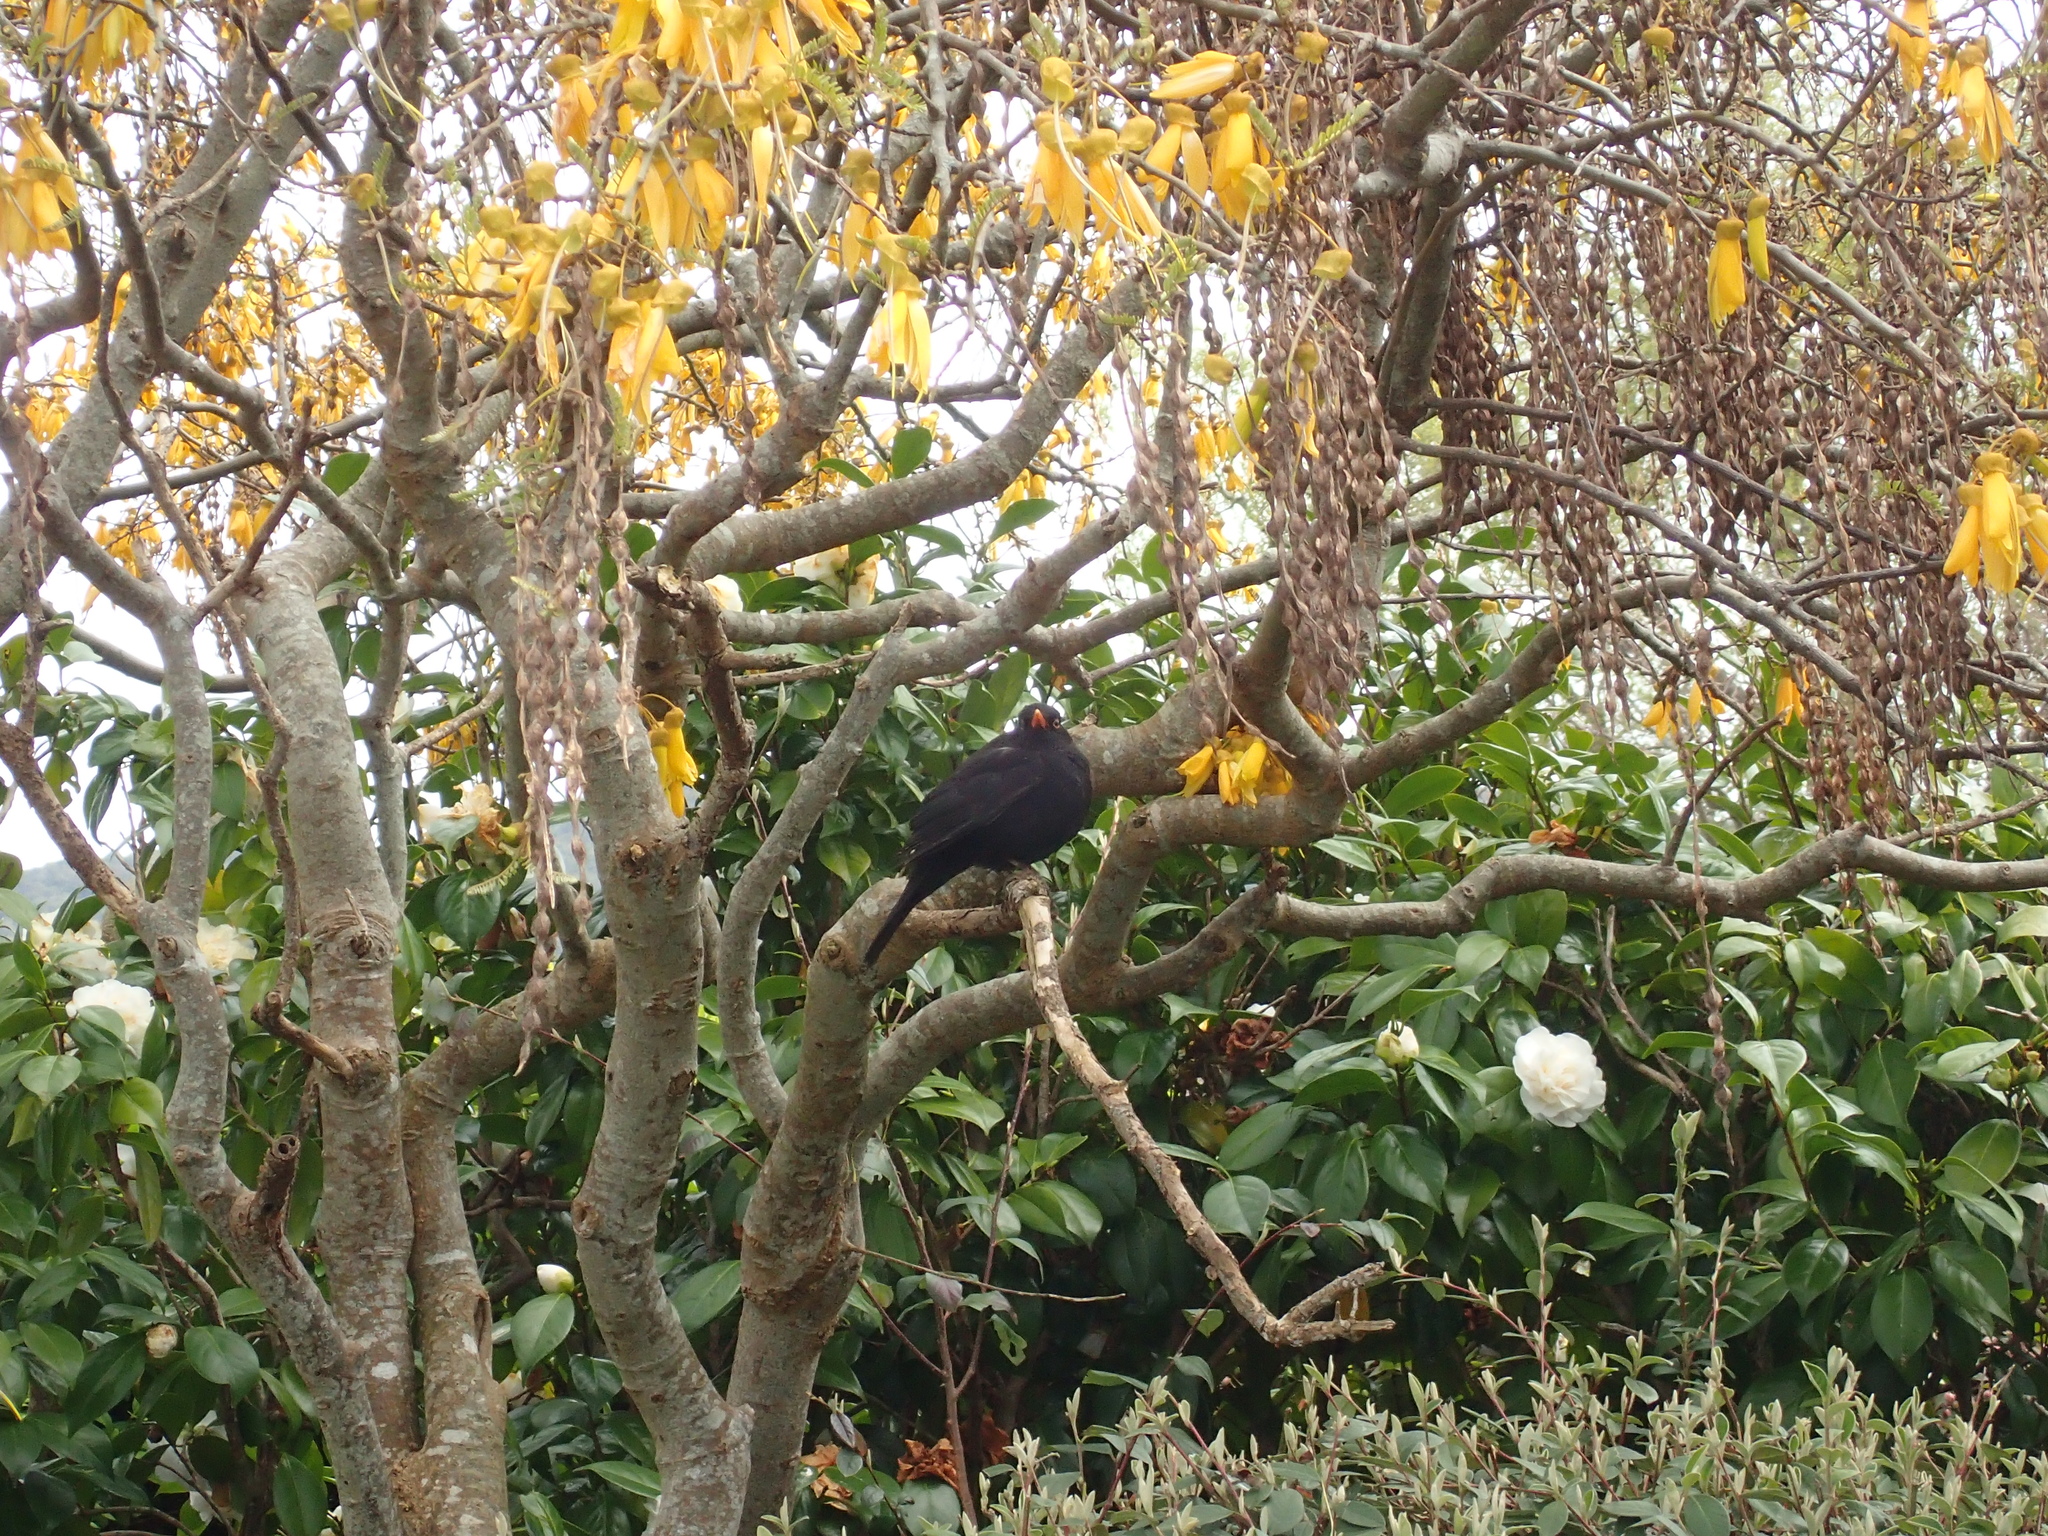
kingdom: Animalia
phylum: Chordata
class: Aves
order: Passeriformes
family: Turdidae
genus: Turdus
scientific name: Turdus merula
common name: Common blackbird
